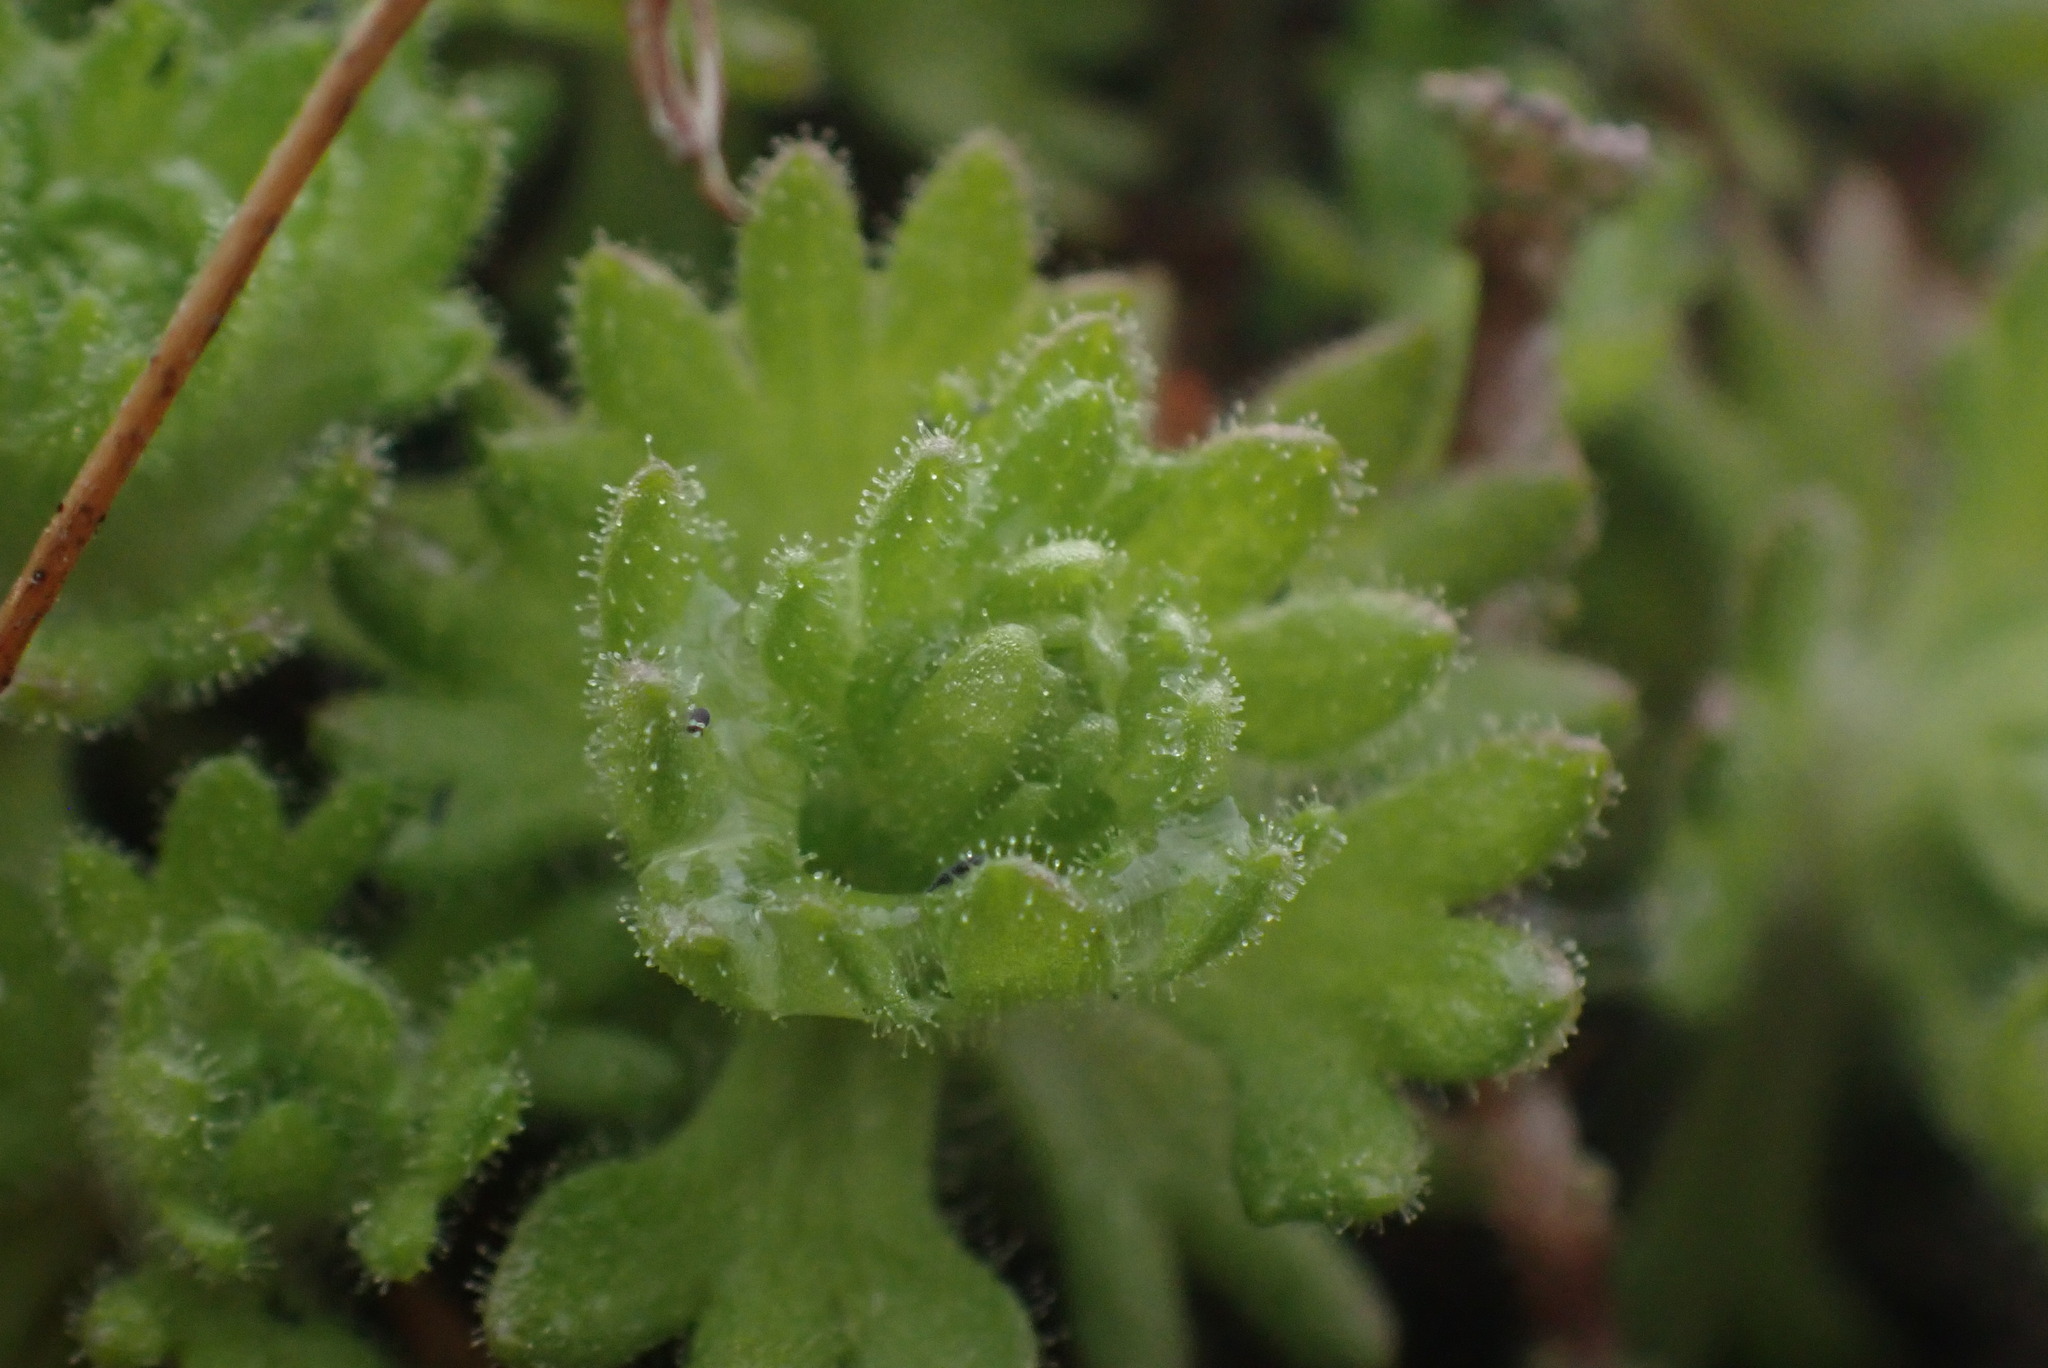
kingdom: Plantae
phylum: Tracheophyta
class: Magnoliopsida
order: Saxifragales
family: Saxifragaceae
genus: Saxifraga
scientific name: Saxifraga cespitosa
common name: Tufted saxifrage
